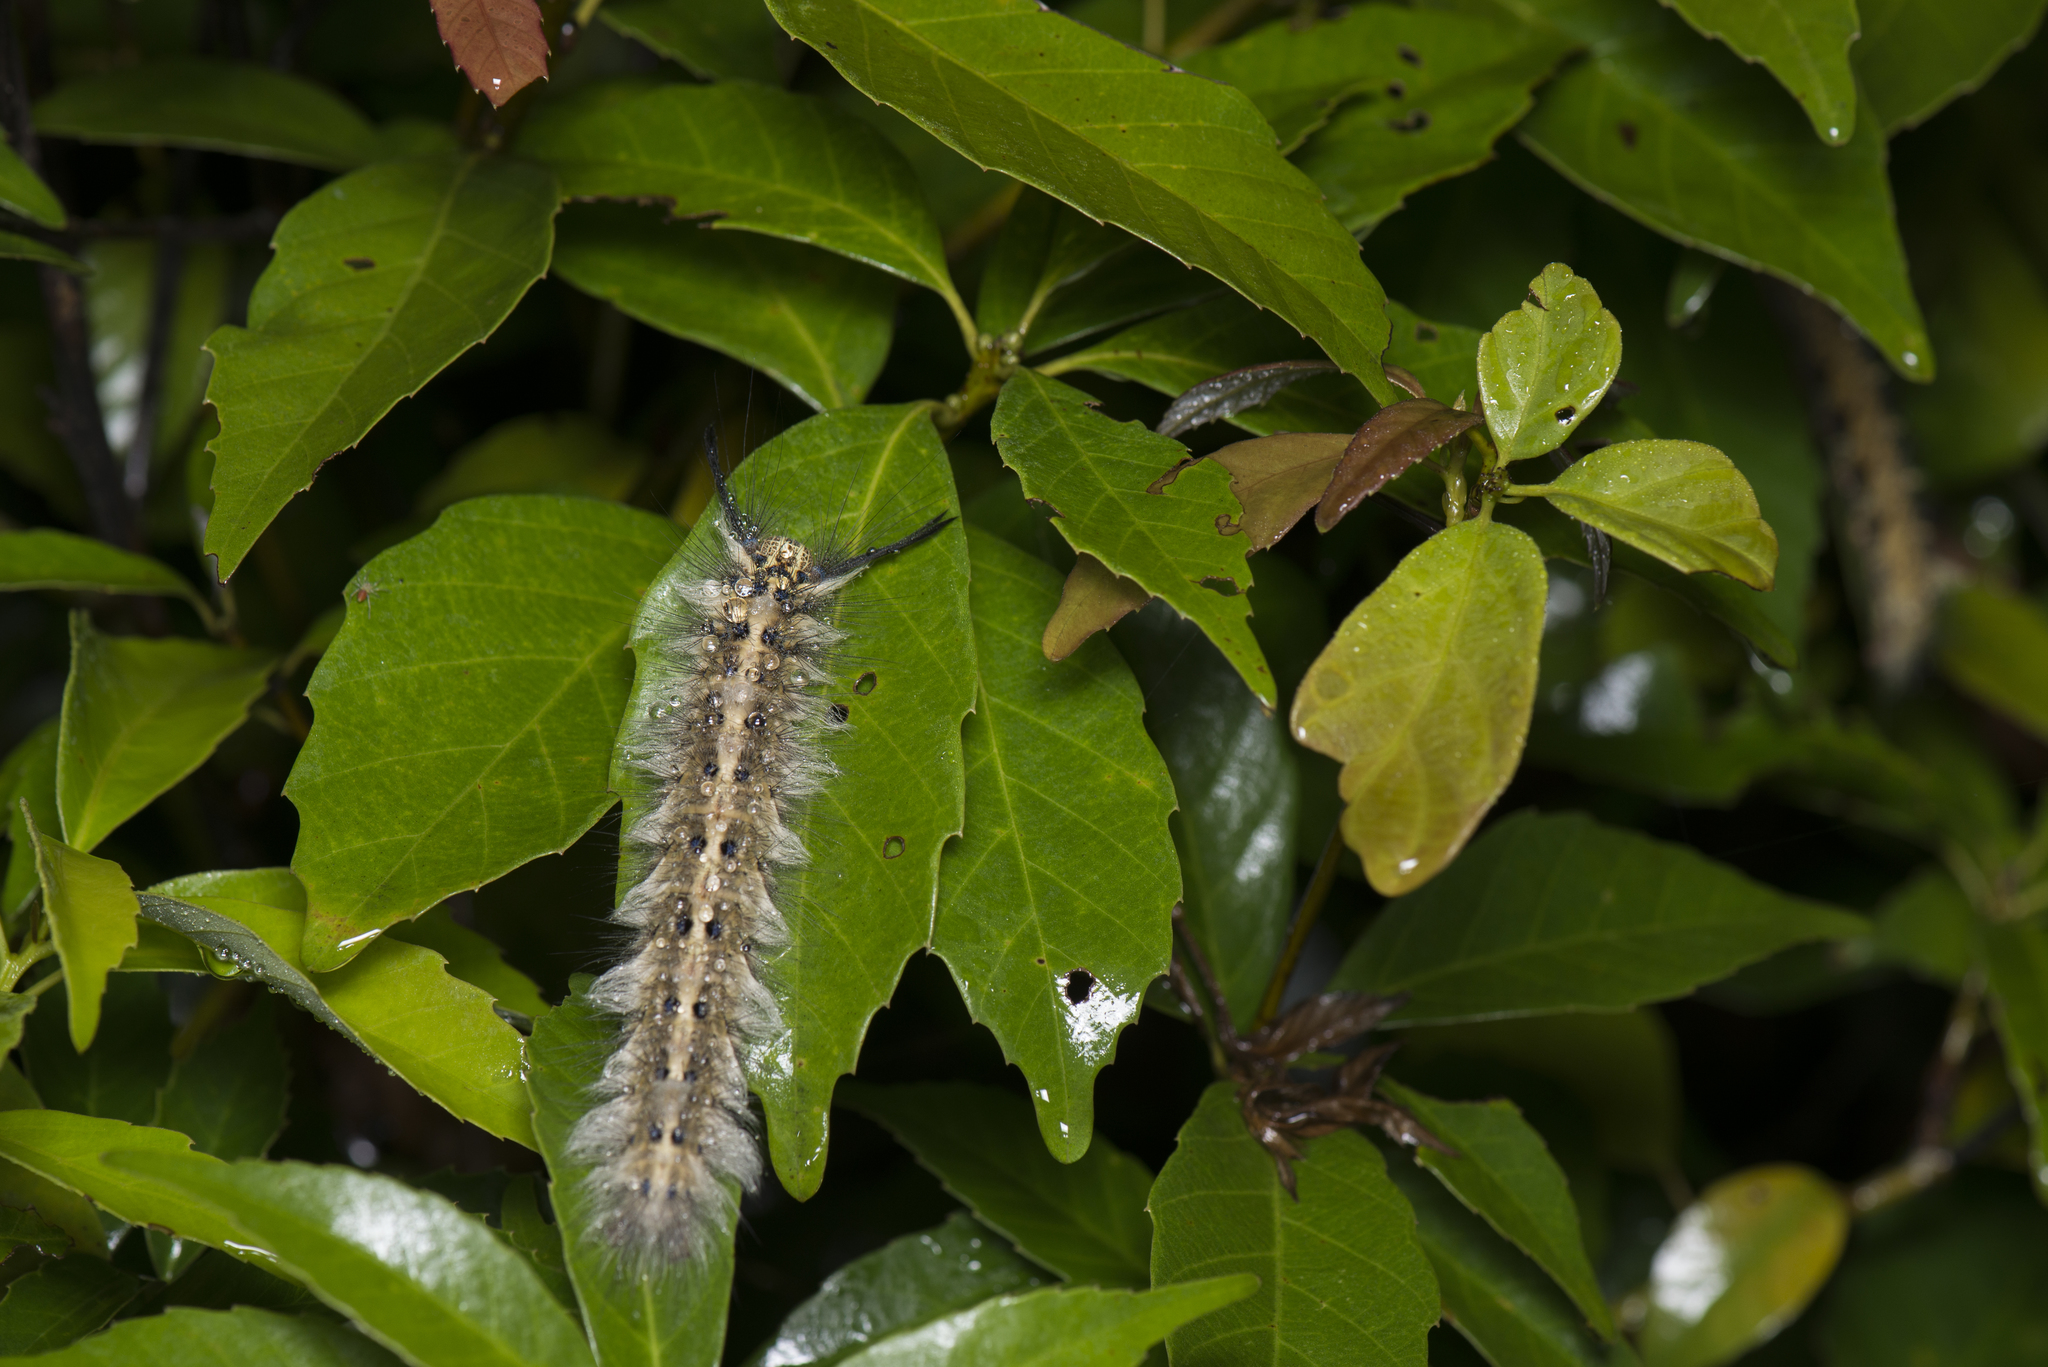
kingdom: Animalia
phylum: Arthropoda
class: Insecta
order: Lepidoptera
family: Lasiocampidae
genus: Trabala
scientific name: Trabala vishnou
